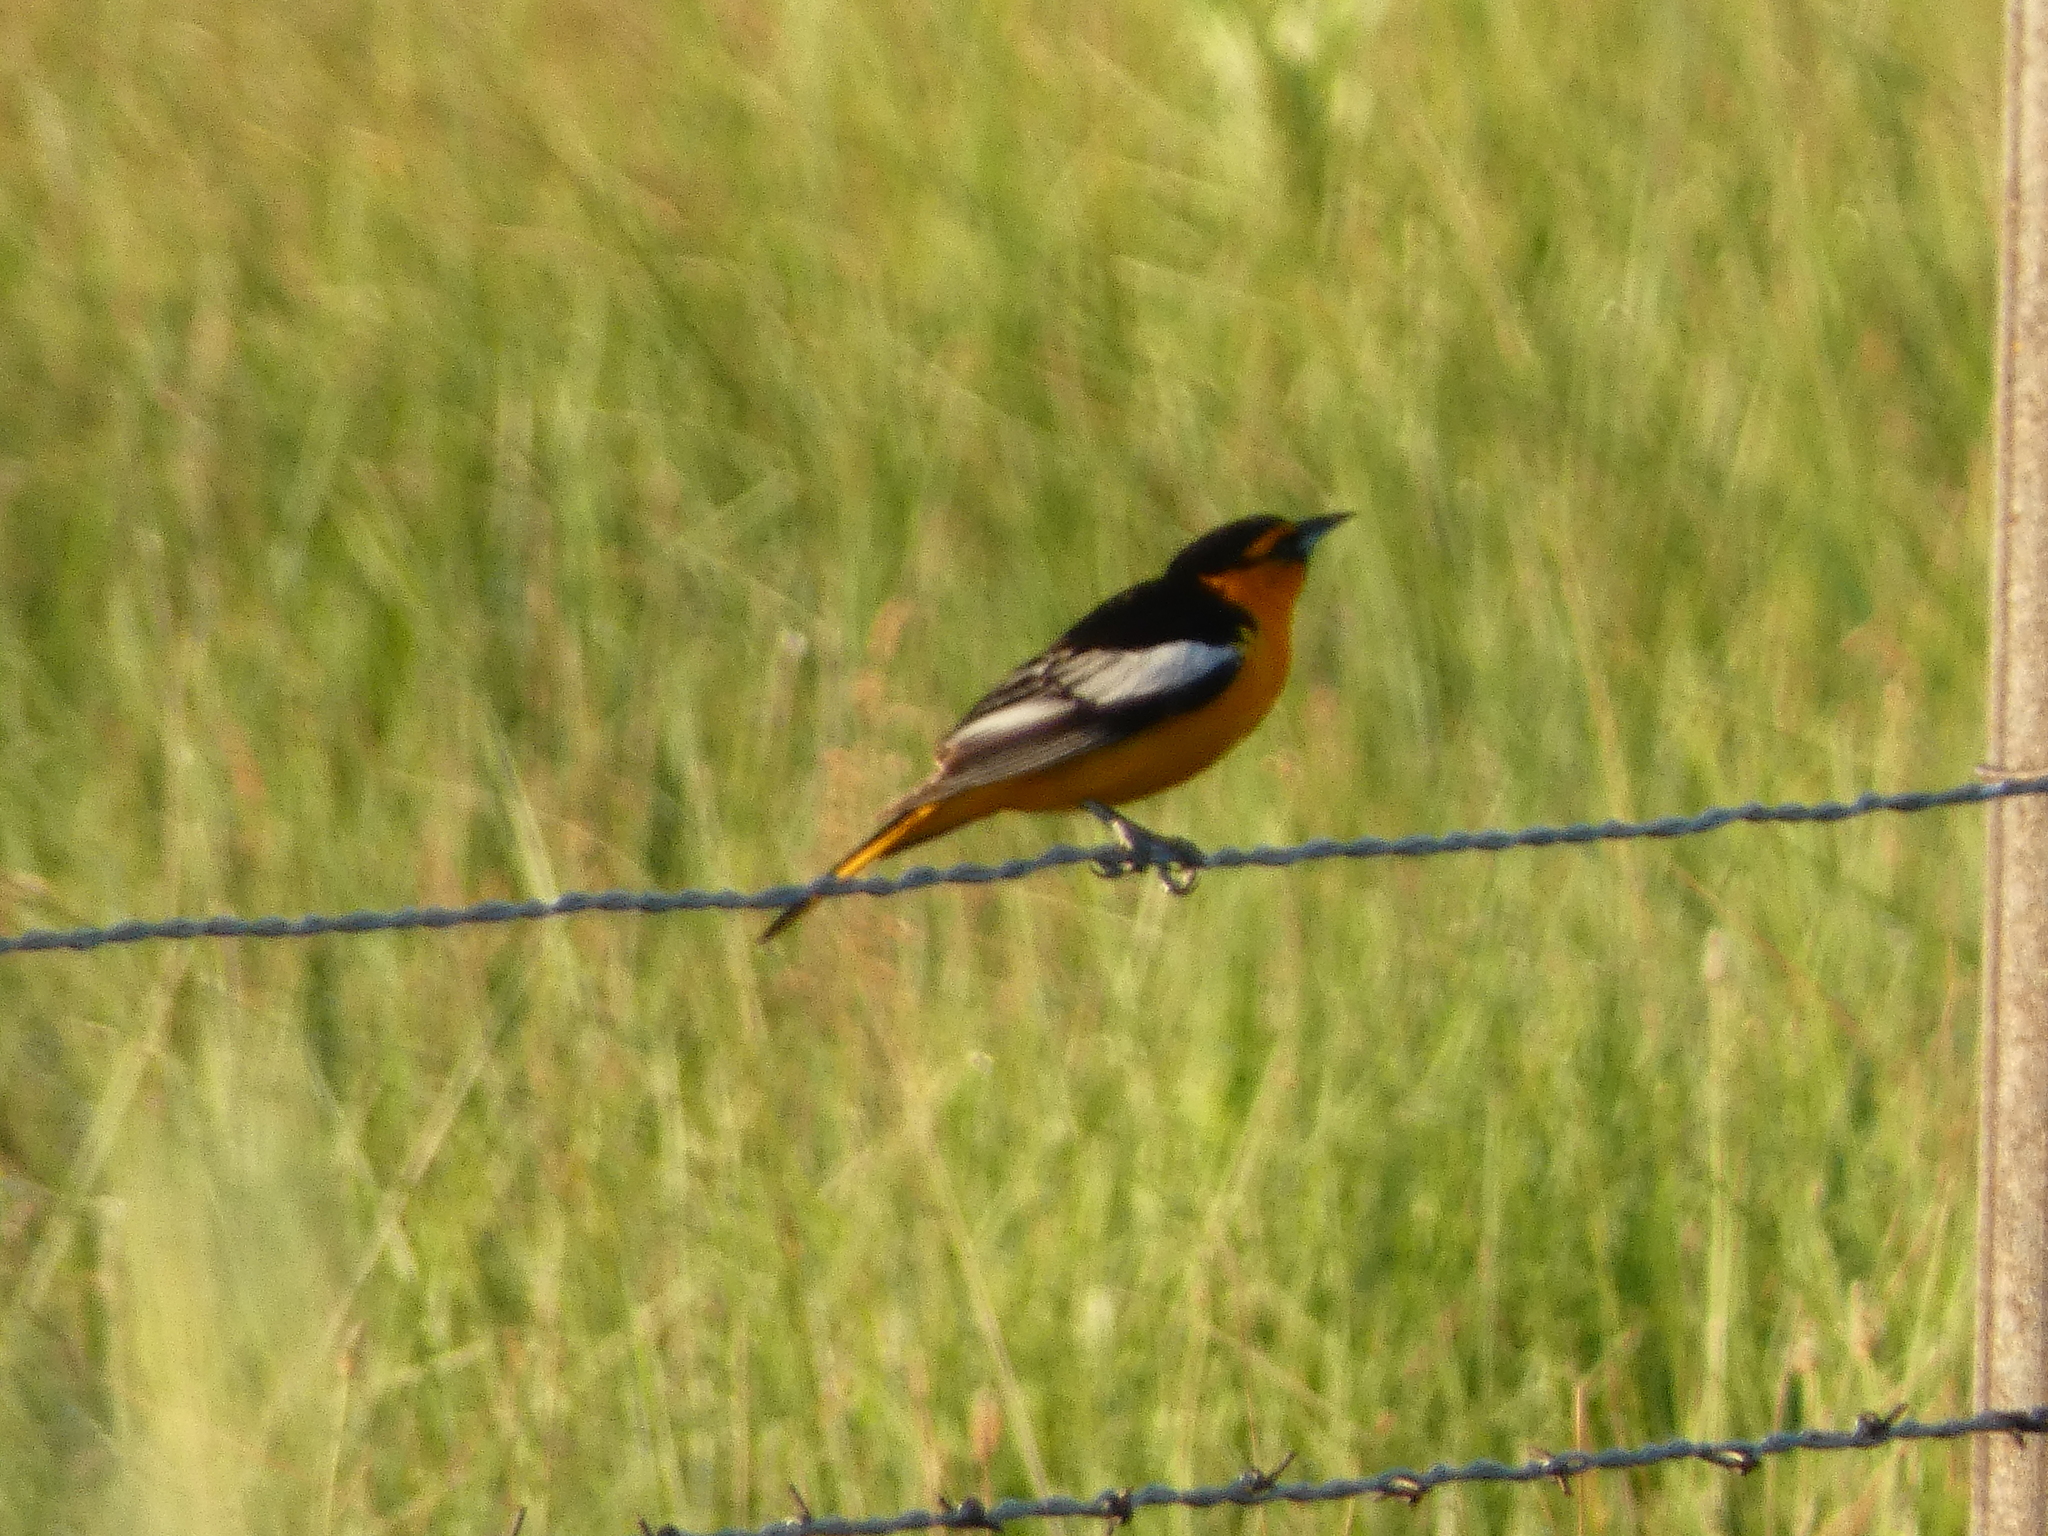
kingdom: Animalia
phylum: Chordata
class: Aves
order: Passeriformes
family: Icteridae
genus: Icterus
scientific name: Icterus bullockii
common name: Bullock's oriole
